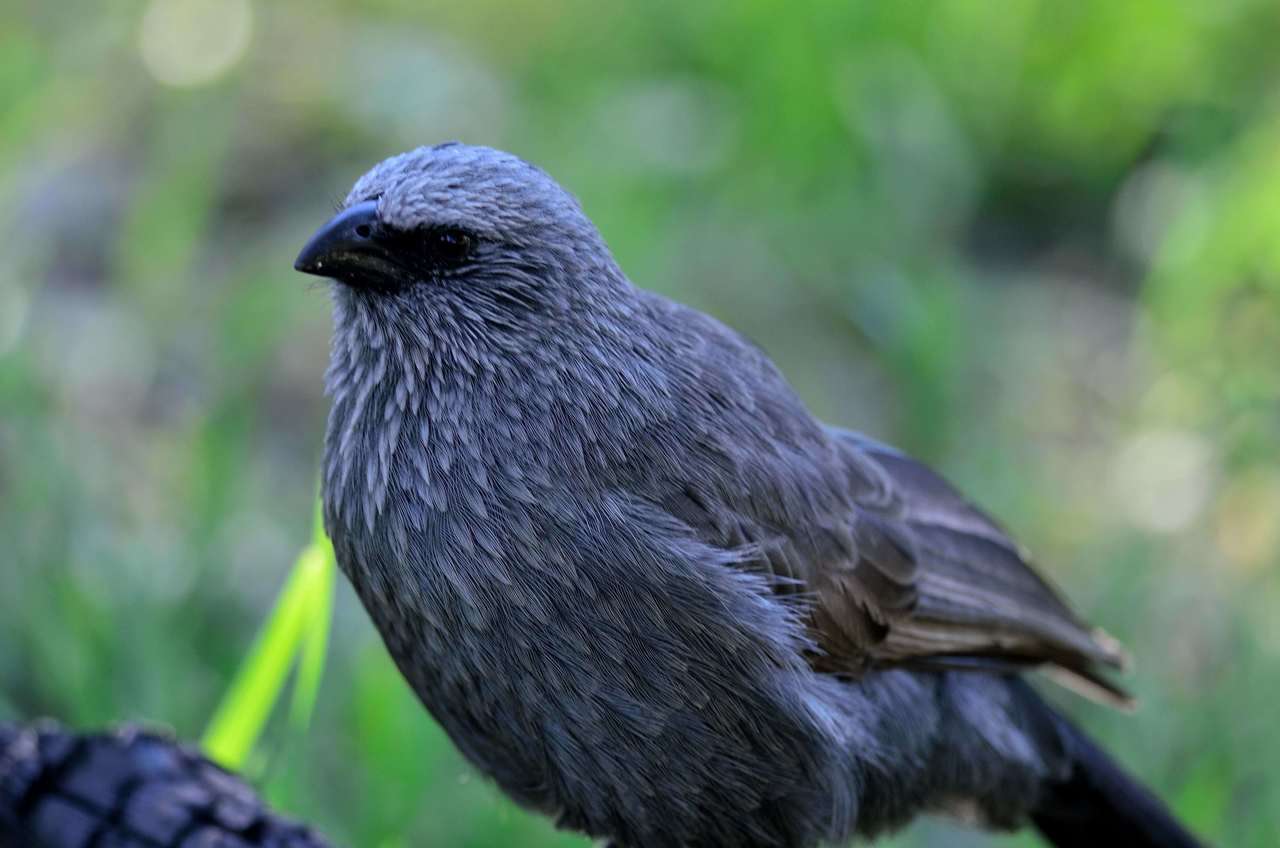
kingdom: Animalia
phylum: Chordata
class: Aves
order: Passeriformes
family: Corcoracidae
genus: Struthidea
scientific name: Struthidea cinerea
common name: Apostlebird
